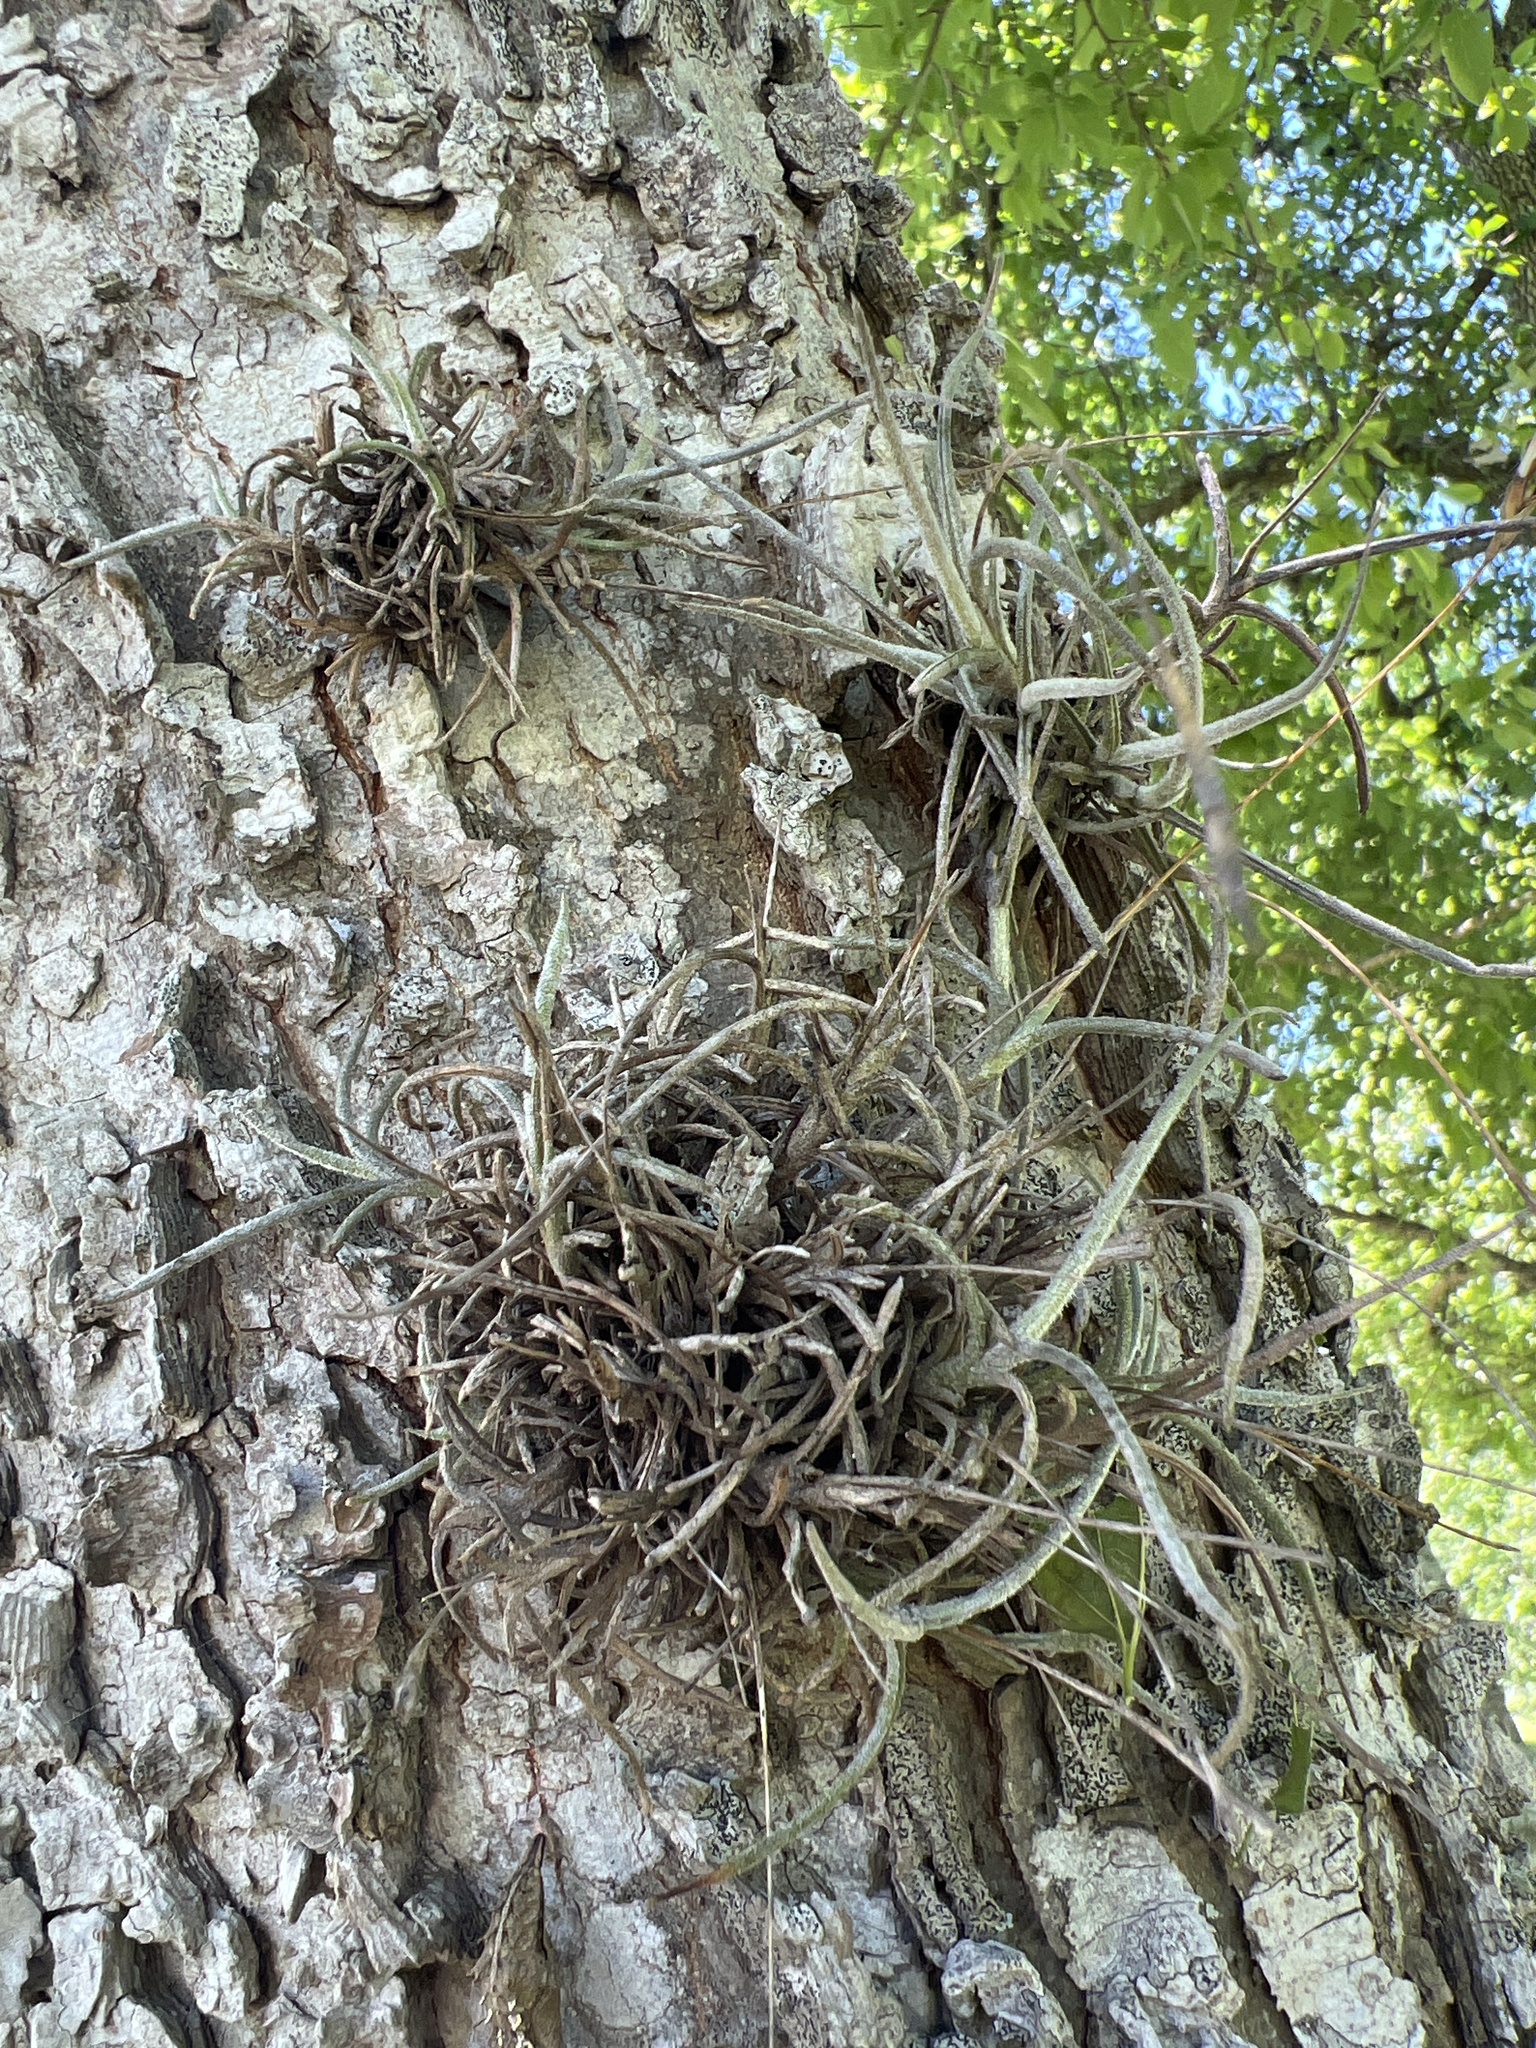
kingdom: Plantae
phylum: Tracheophyta
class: Liliopsida
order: Poales
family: Bromeliaceae
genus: Tillandsia
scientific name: Tillandsia recurvata
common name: Small ballmoss
